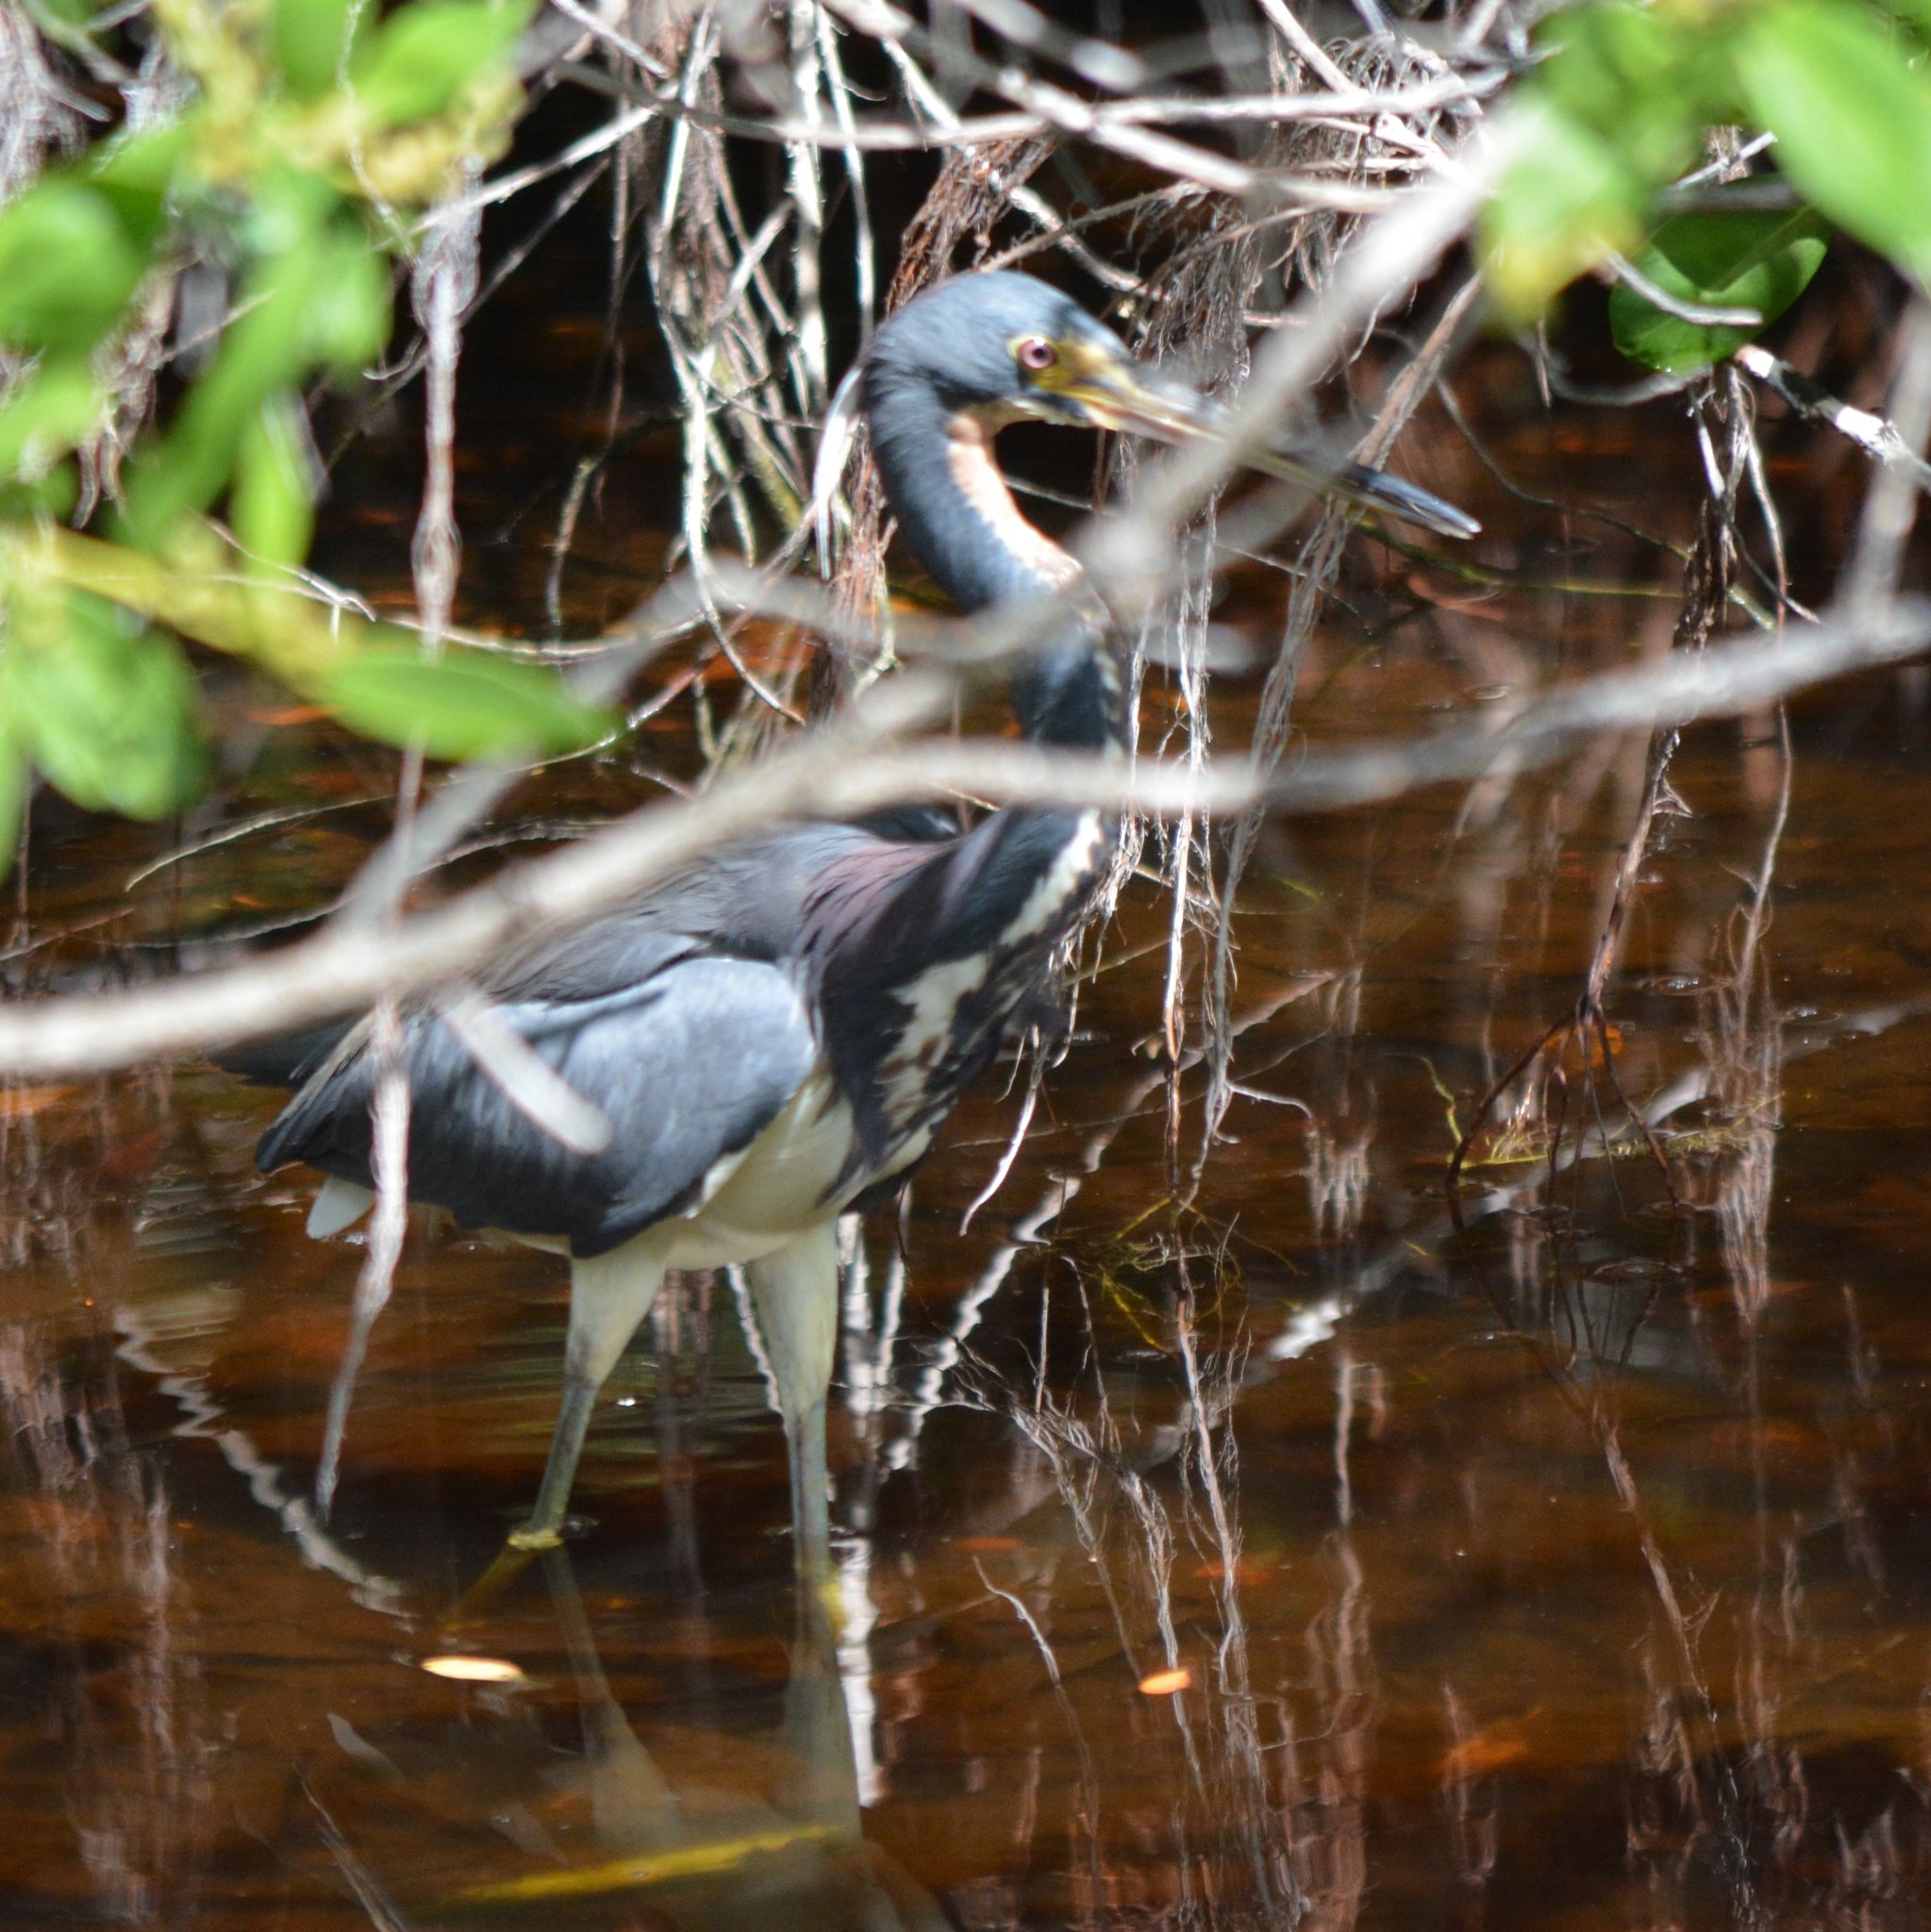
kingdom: Animalia
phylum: Chordata
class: Aves
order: Pelecaniformes
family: Ardeidae
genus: Egretta
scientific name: Egretta tricolor
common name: Tricolored heron
